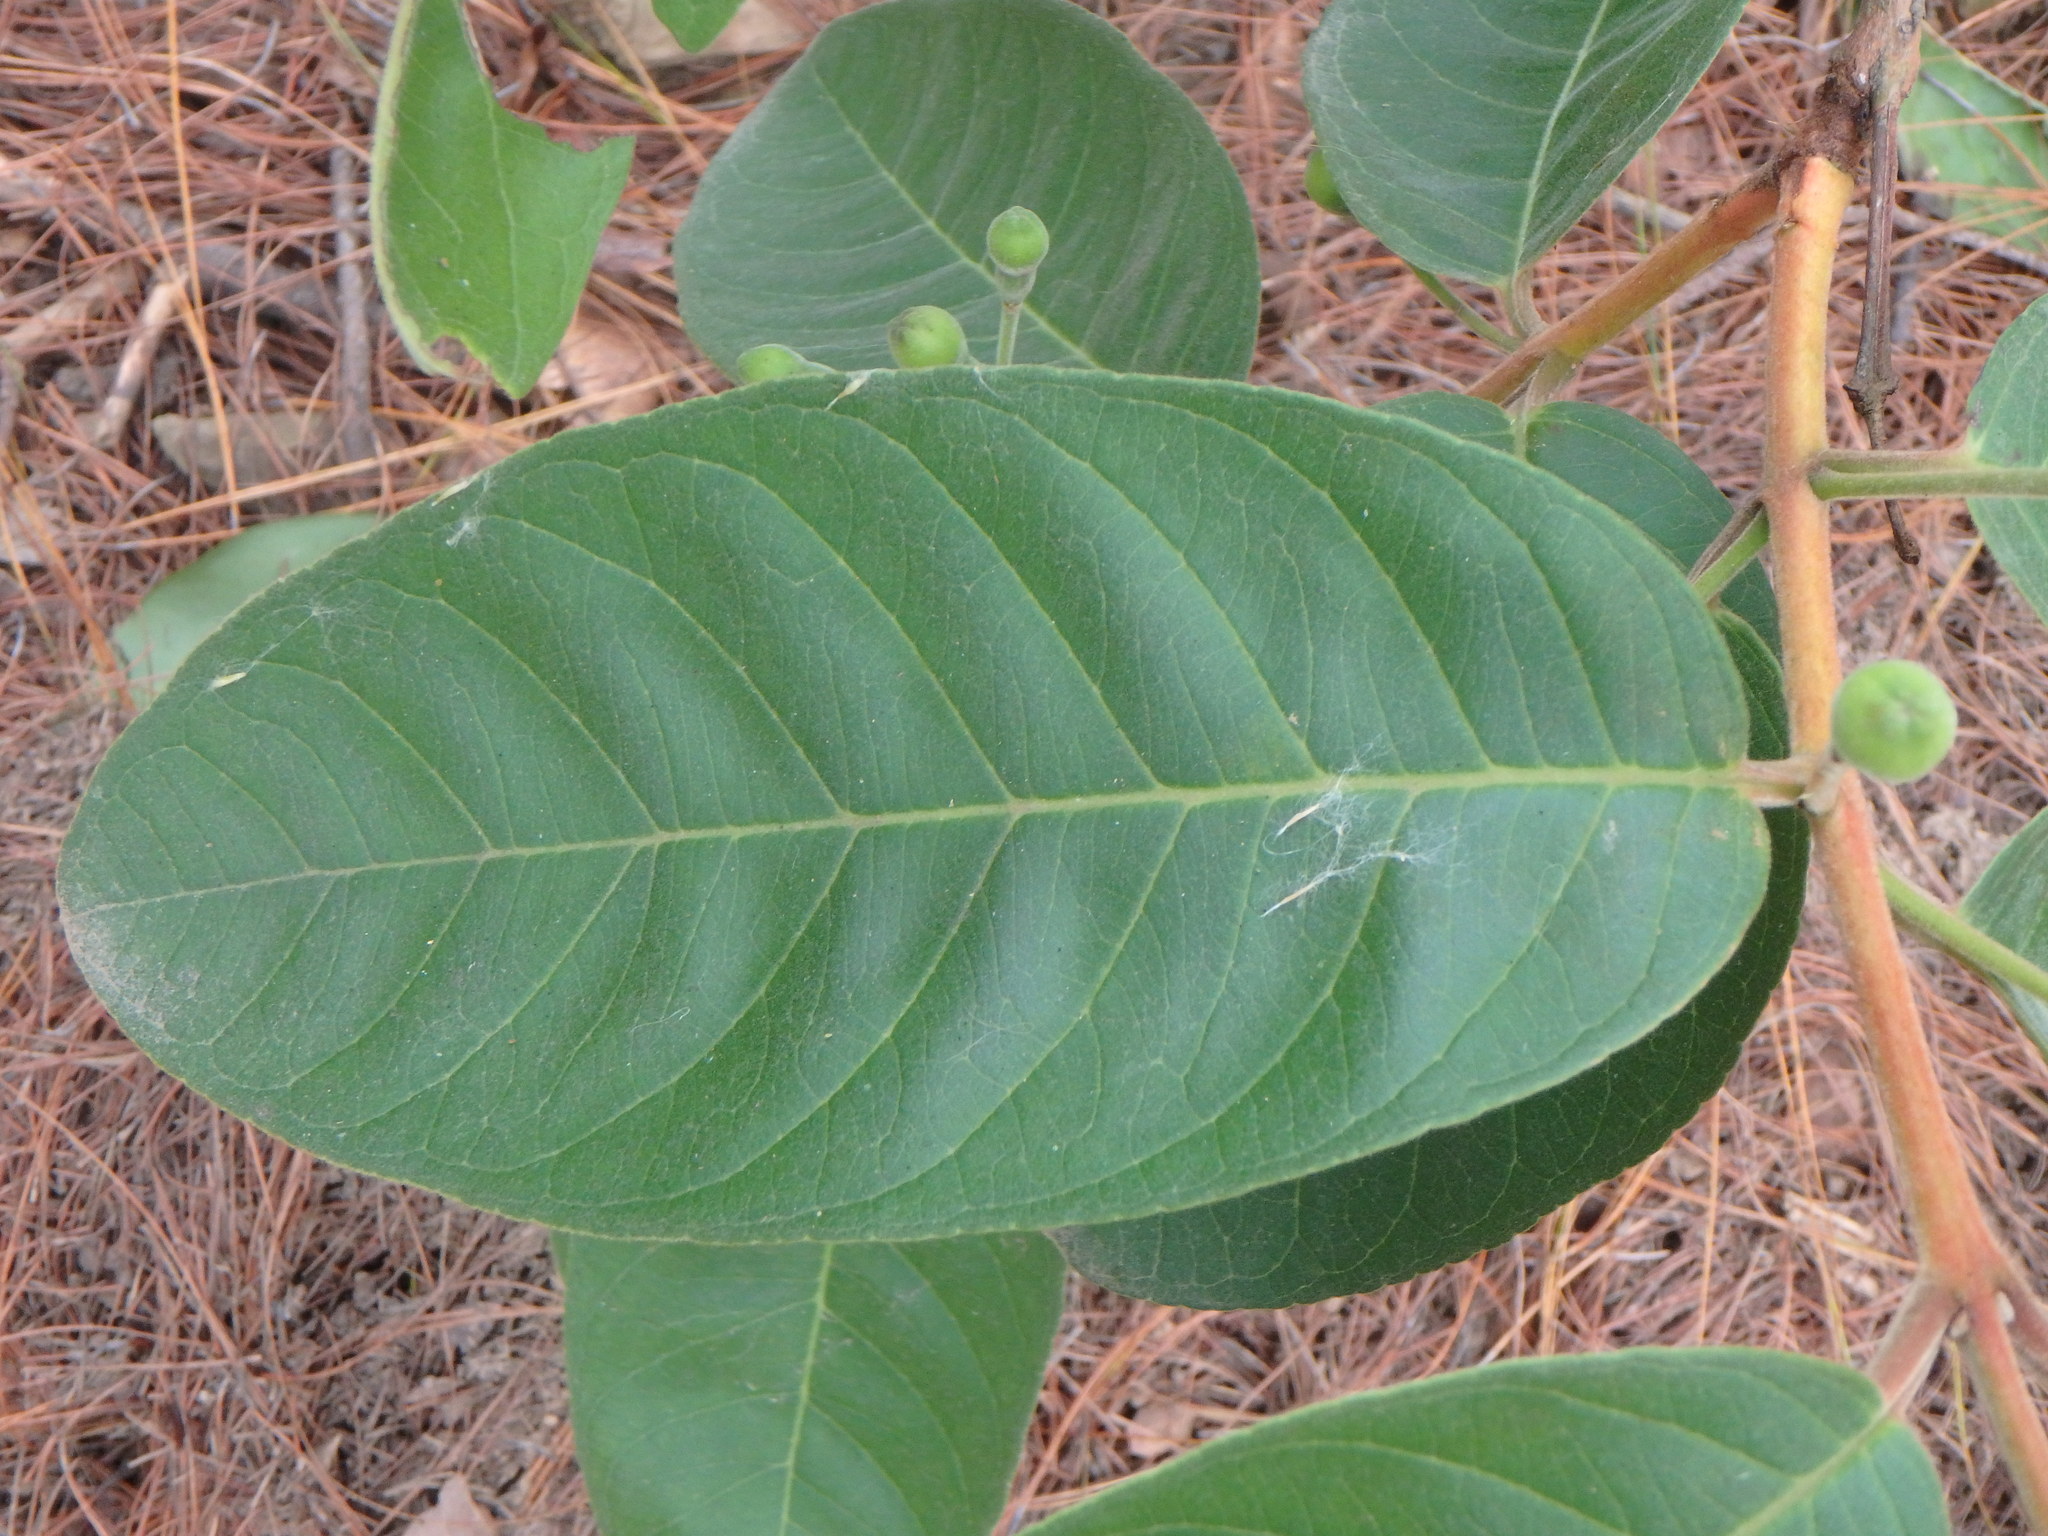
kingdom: Plantae
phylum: Tracheophyta
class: Magnoliopsida
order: Myrtales
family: Myrtaceae
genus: Psidium
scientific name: Psidium guineense
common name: Brazilian guava
